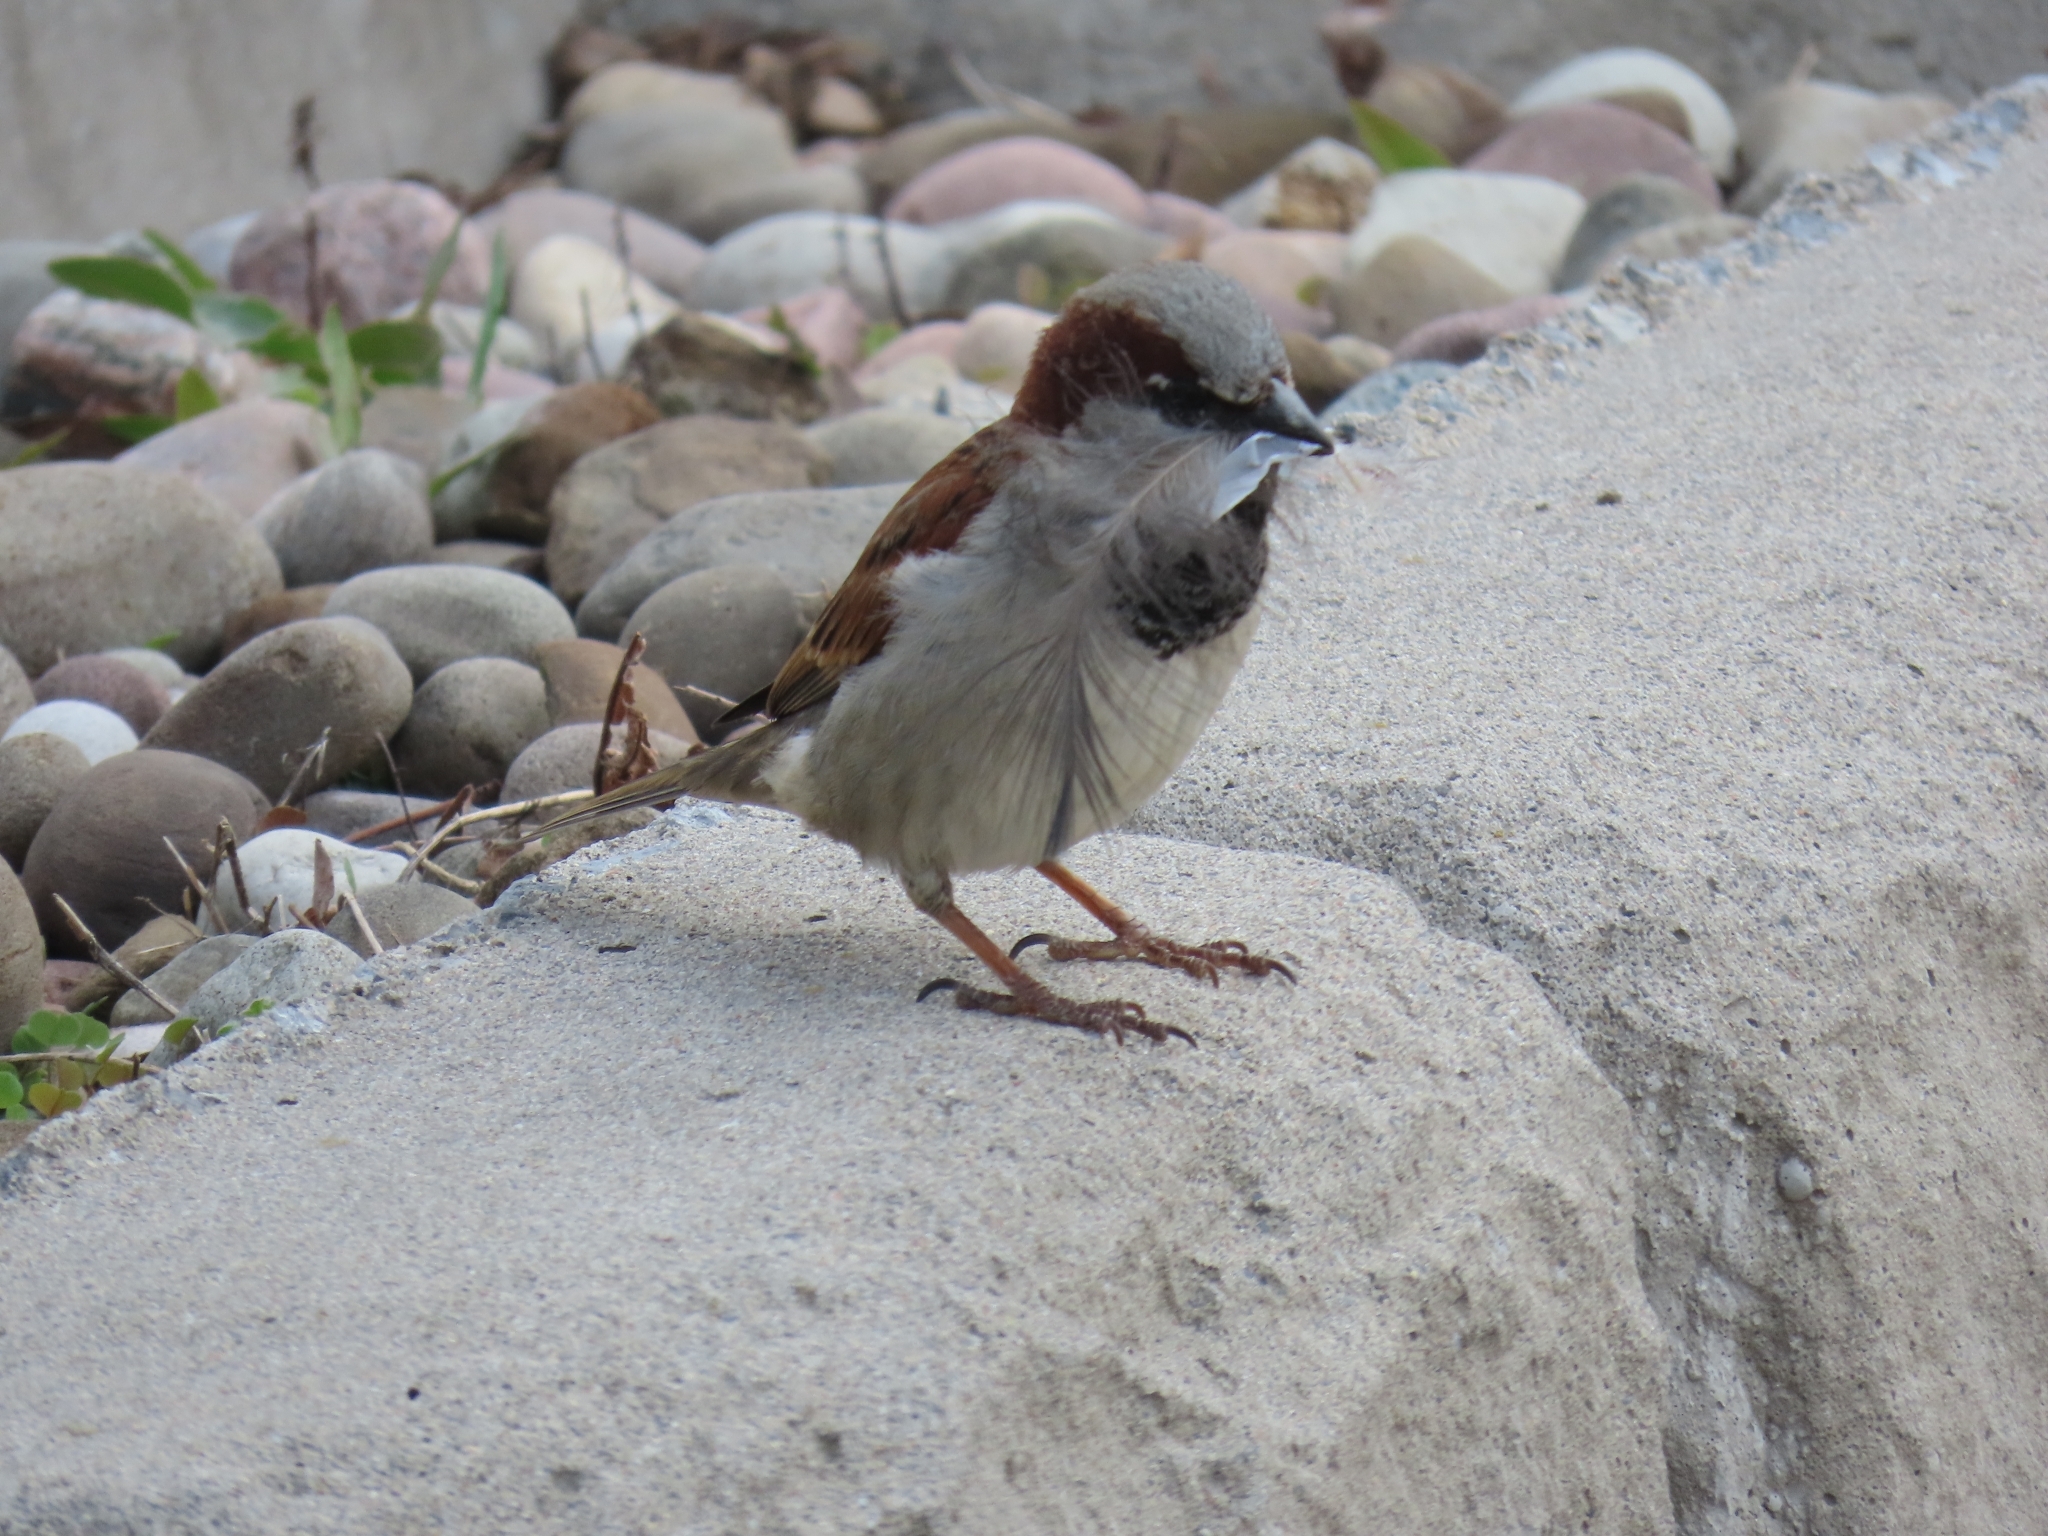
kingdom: Animalia
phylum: Chordata
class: Aves
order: Passeriformes
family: Passeridae
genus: Passer
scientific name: Passer domesticus
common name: House sparrow
